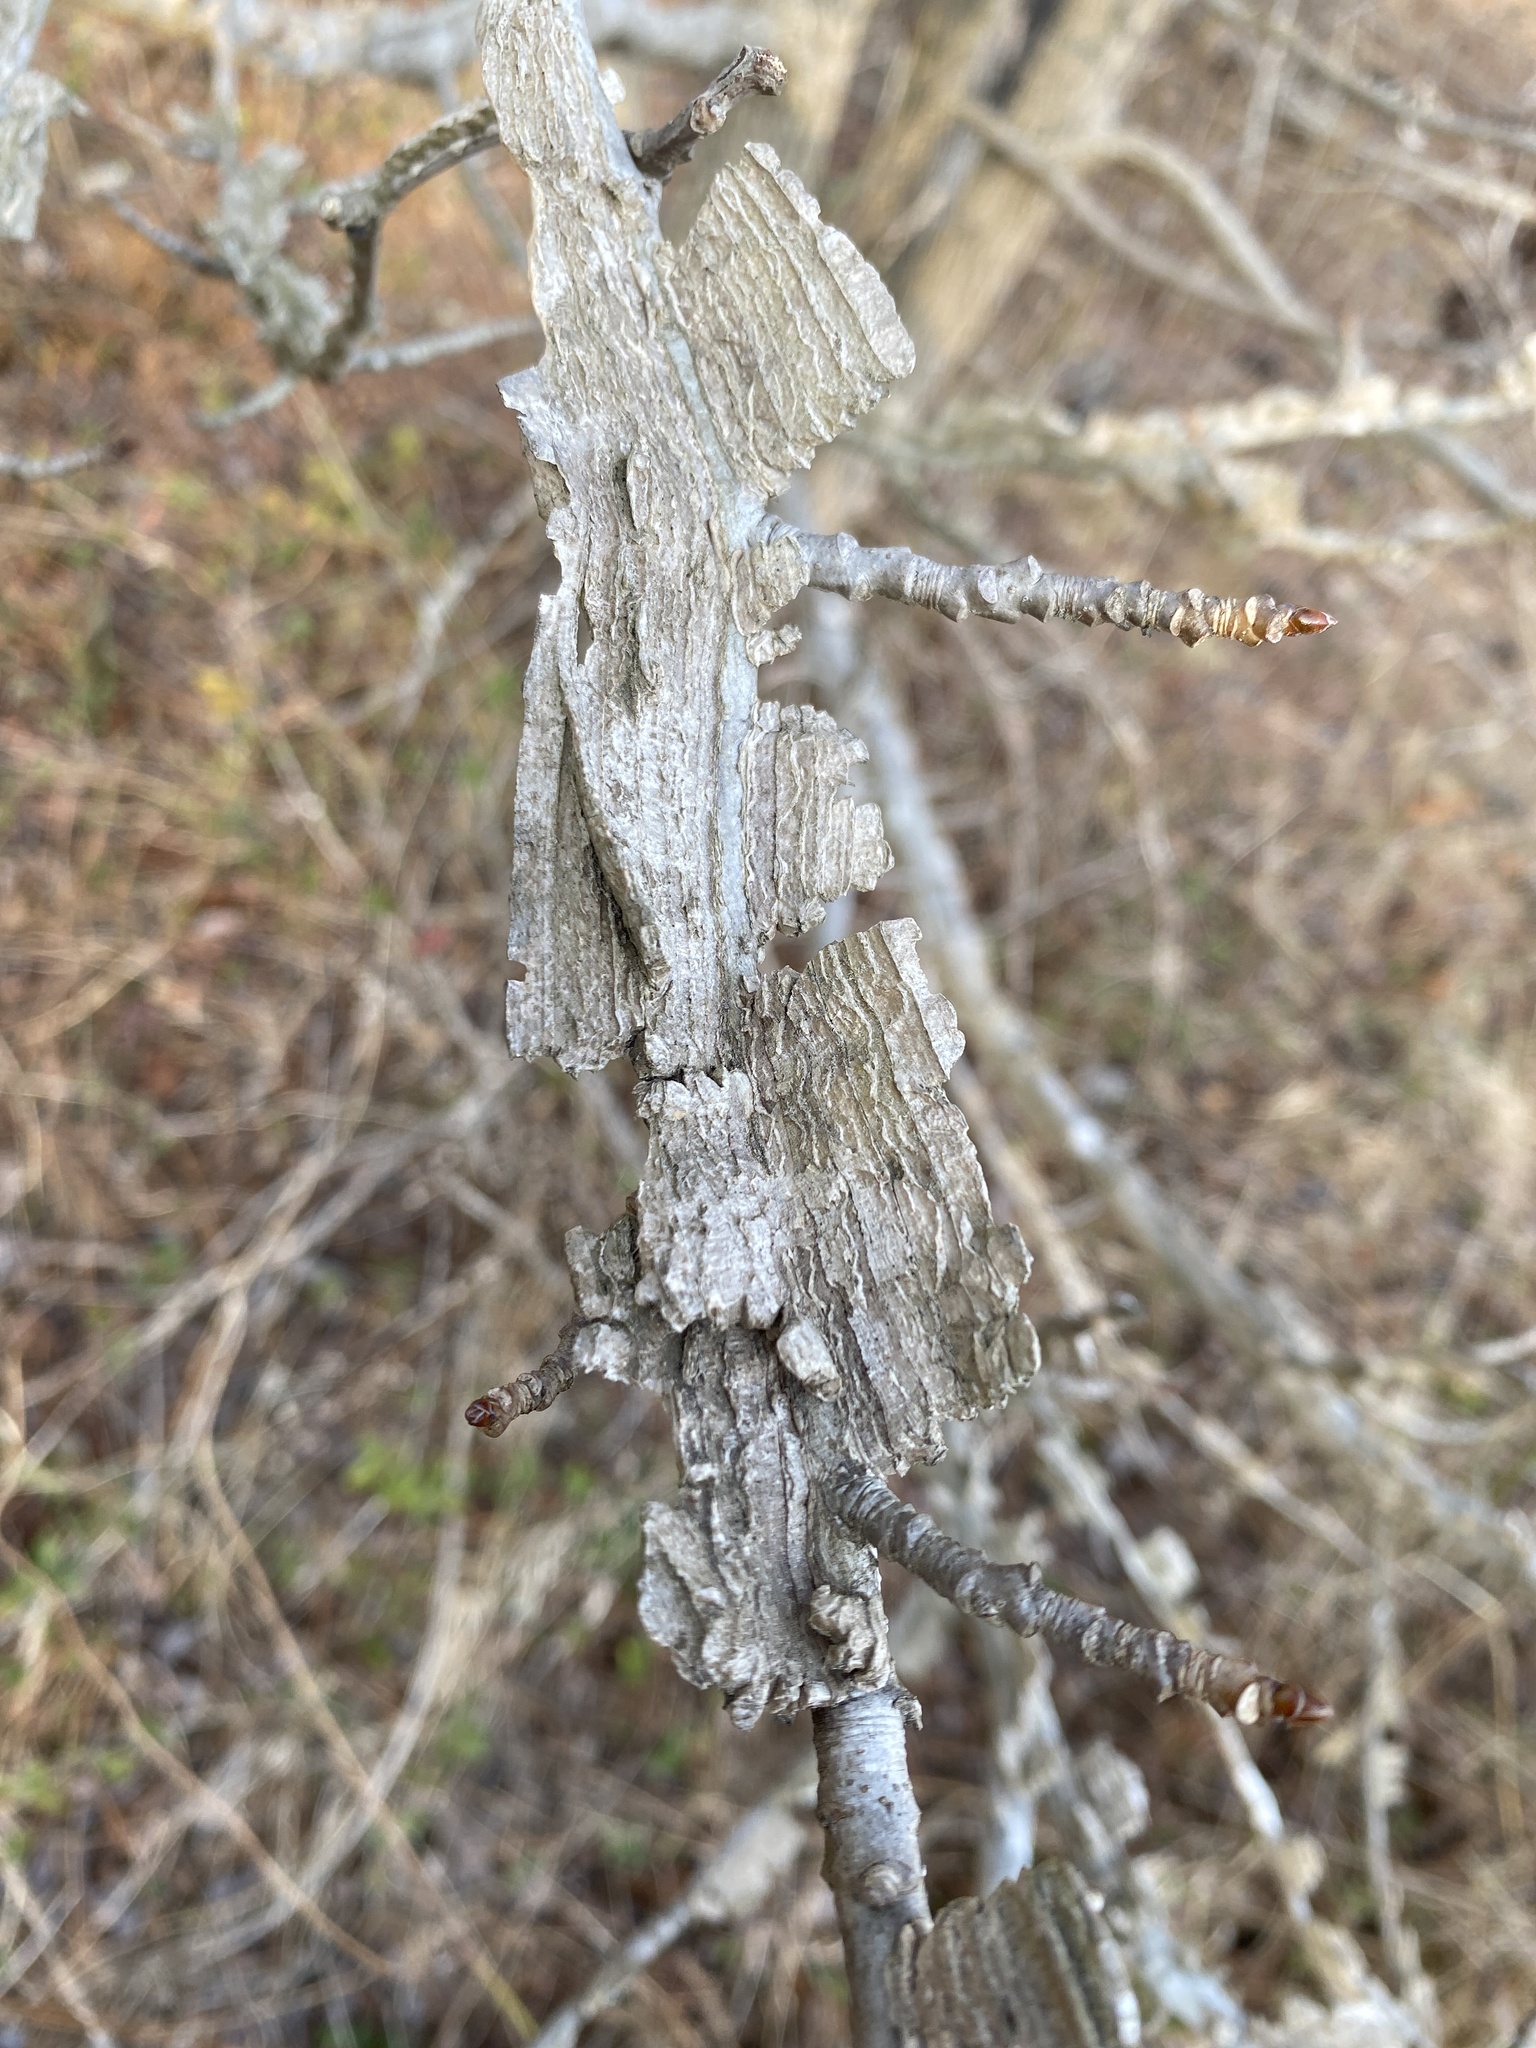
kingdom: Plantae
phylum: Tracheophyta
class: Magnoliopsida
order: Saxifragales
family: Altingiaceae
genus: Liquidambar
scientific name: Liquidambar styraciflua
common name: Sweet gum
